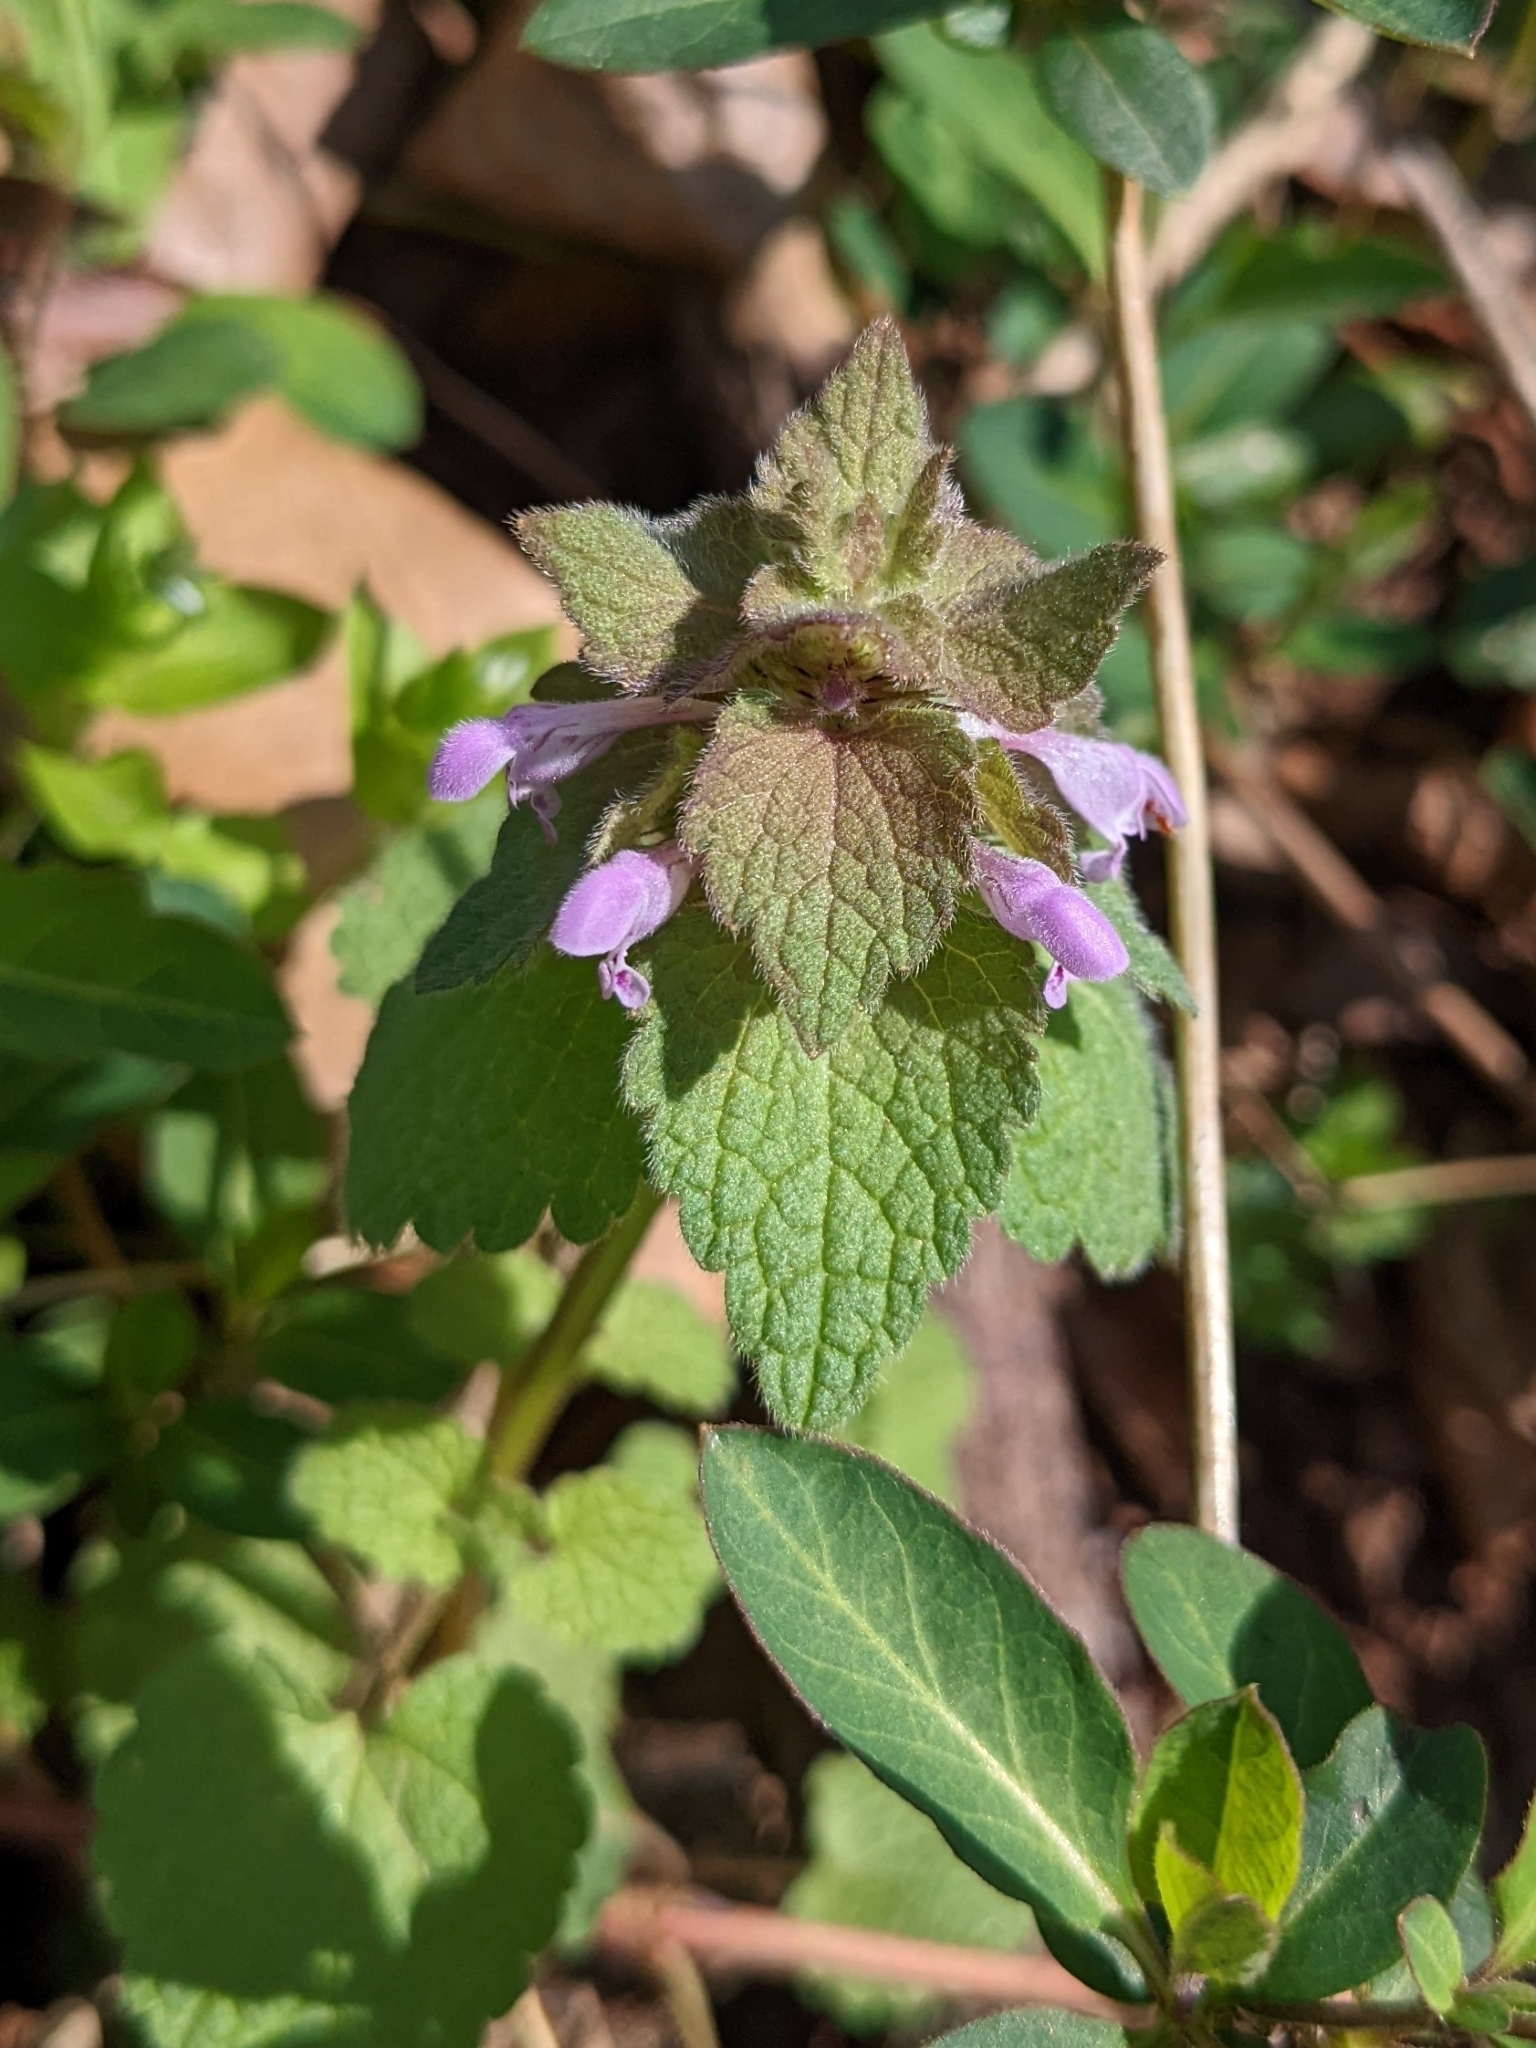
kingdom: Plantae
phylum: Tracheophyta
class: Magnoliopsida
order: Lamiales
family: Lamiaceae
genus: Lamium
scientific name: Lamium purpureum
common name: Red dead-nettle
